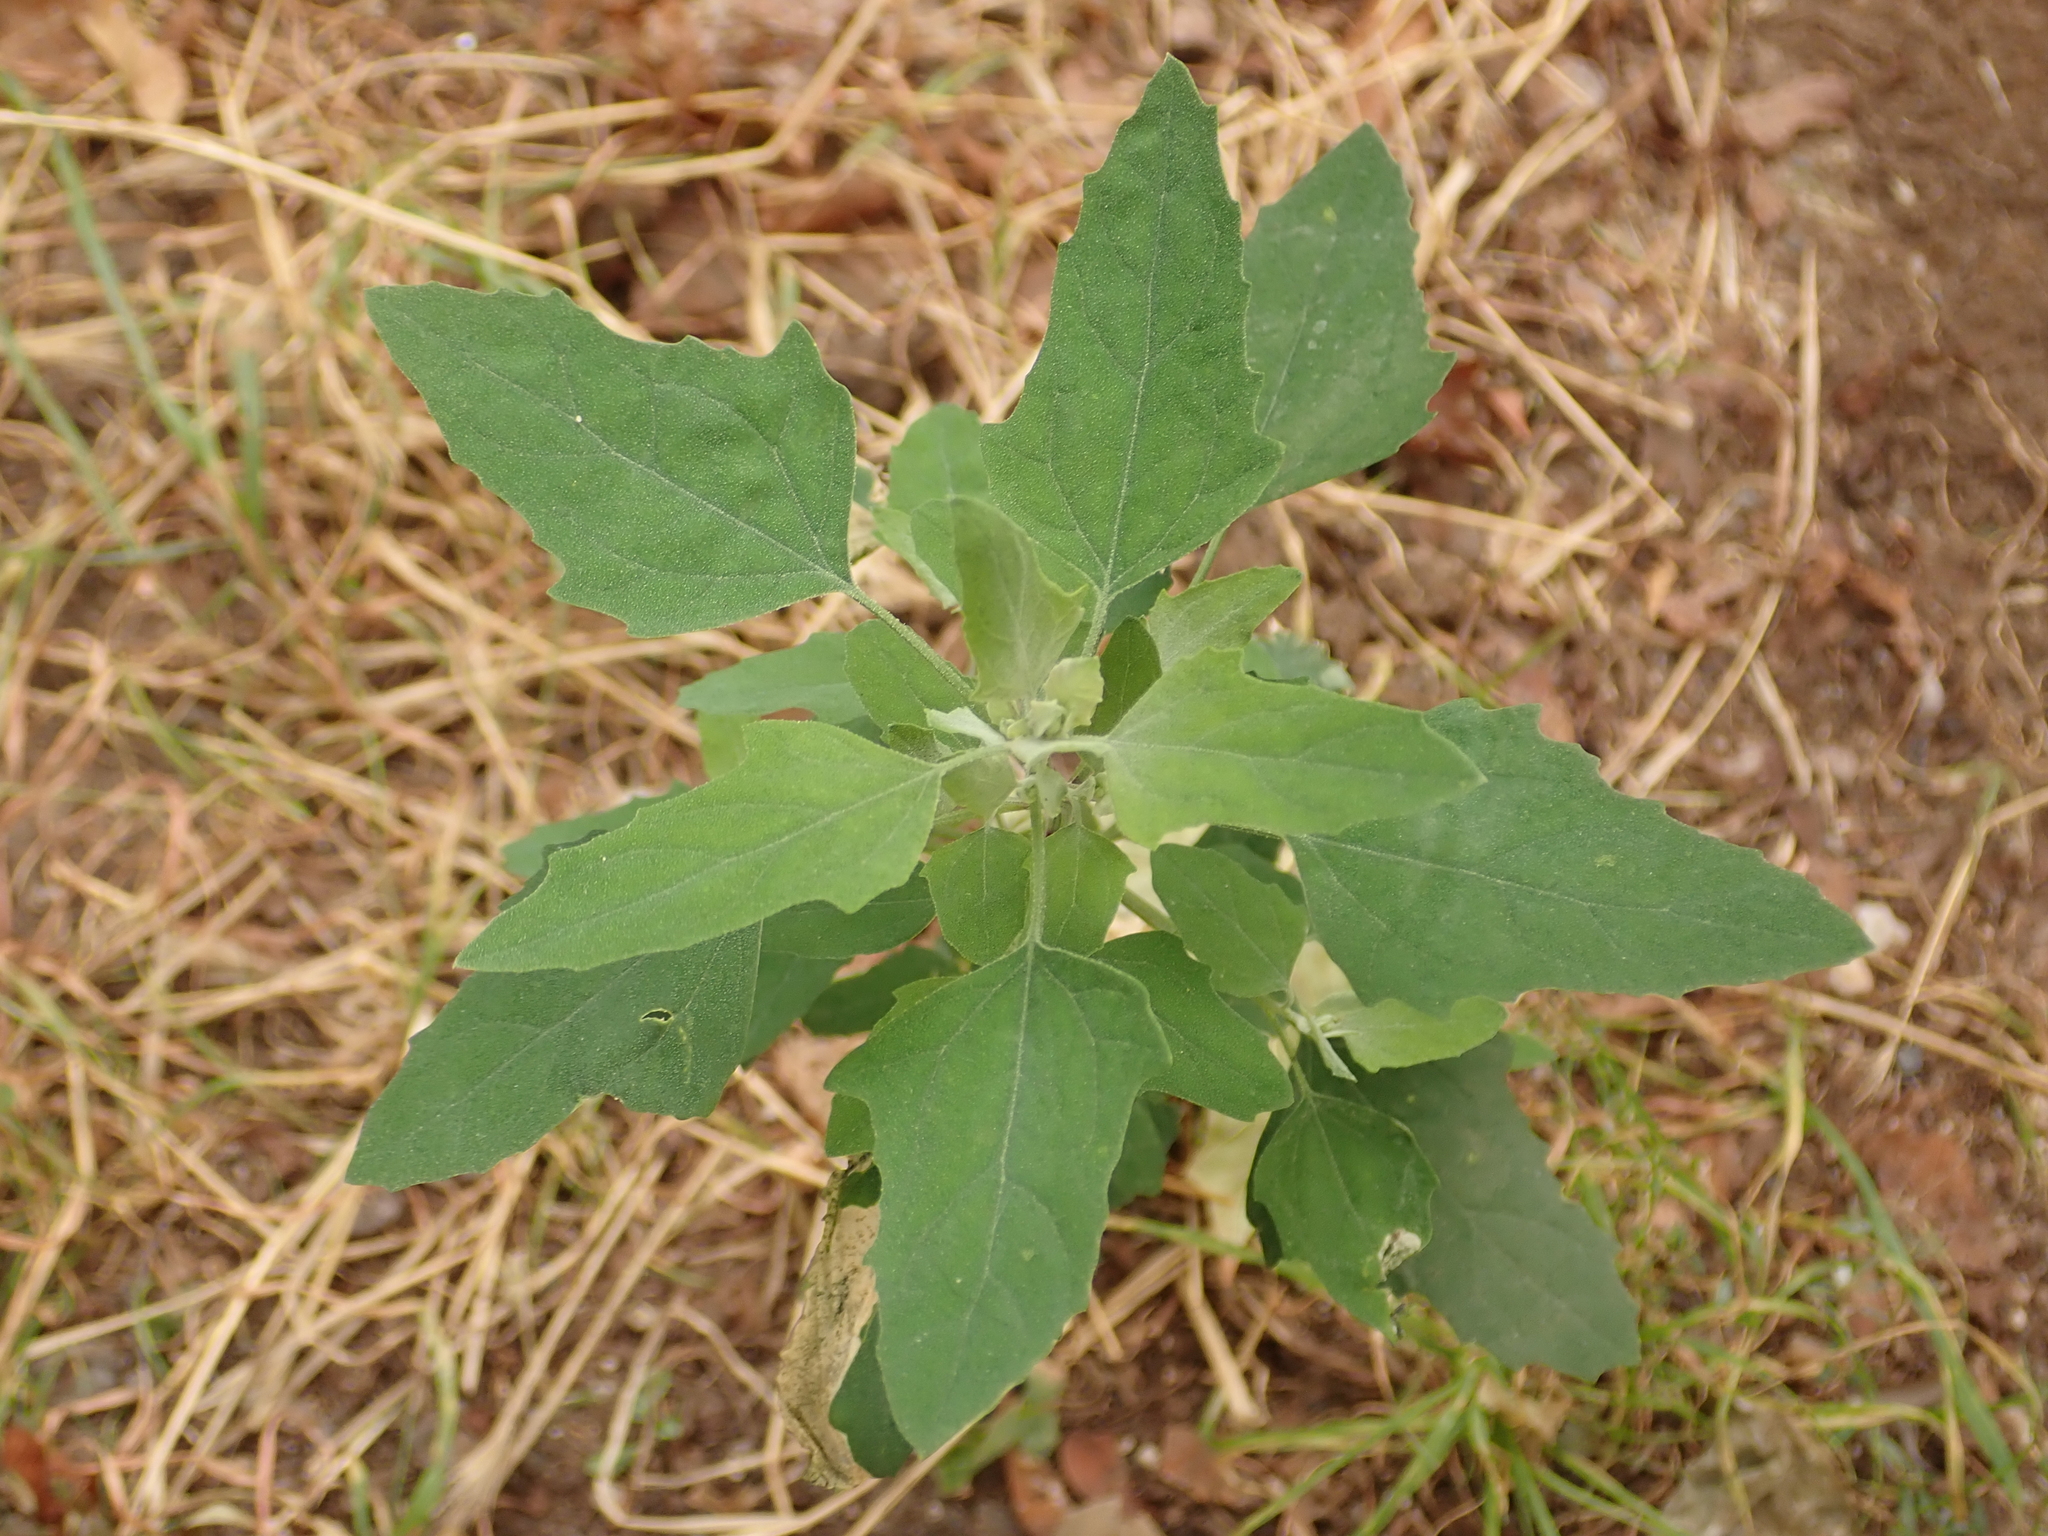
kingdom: Plantae
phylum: Tracheophyta
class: Magnoliopsida
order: Caryophyllales
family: Amaranthaceae
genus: Chenopodium
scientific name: Chenopodium album
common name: Fat-hen
